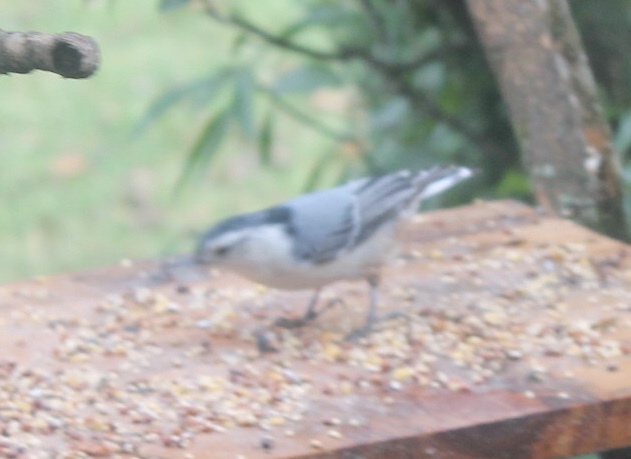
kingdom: Animalia
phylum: Chordata
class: Aves
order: Passeriformes
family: Sittidae
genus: Sitta
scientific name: Sitta carolinensis
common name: White-breasted nuthatch
